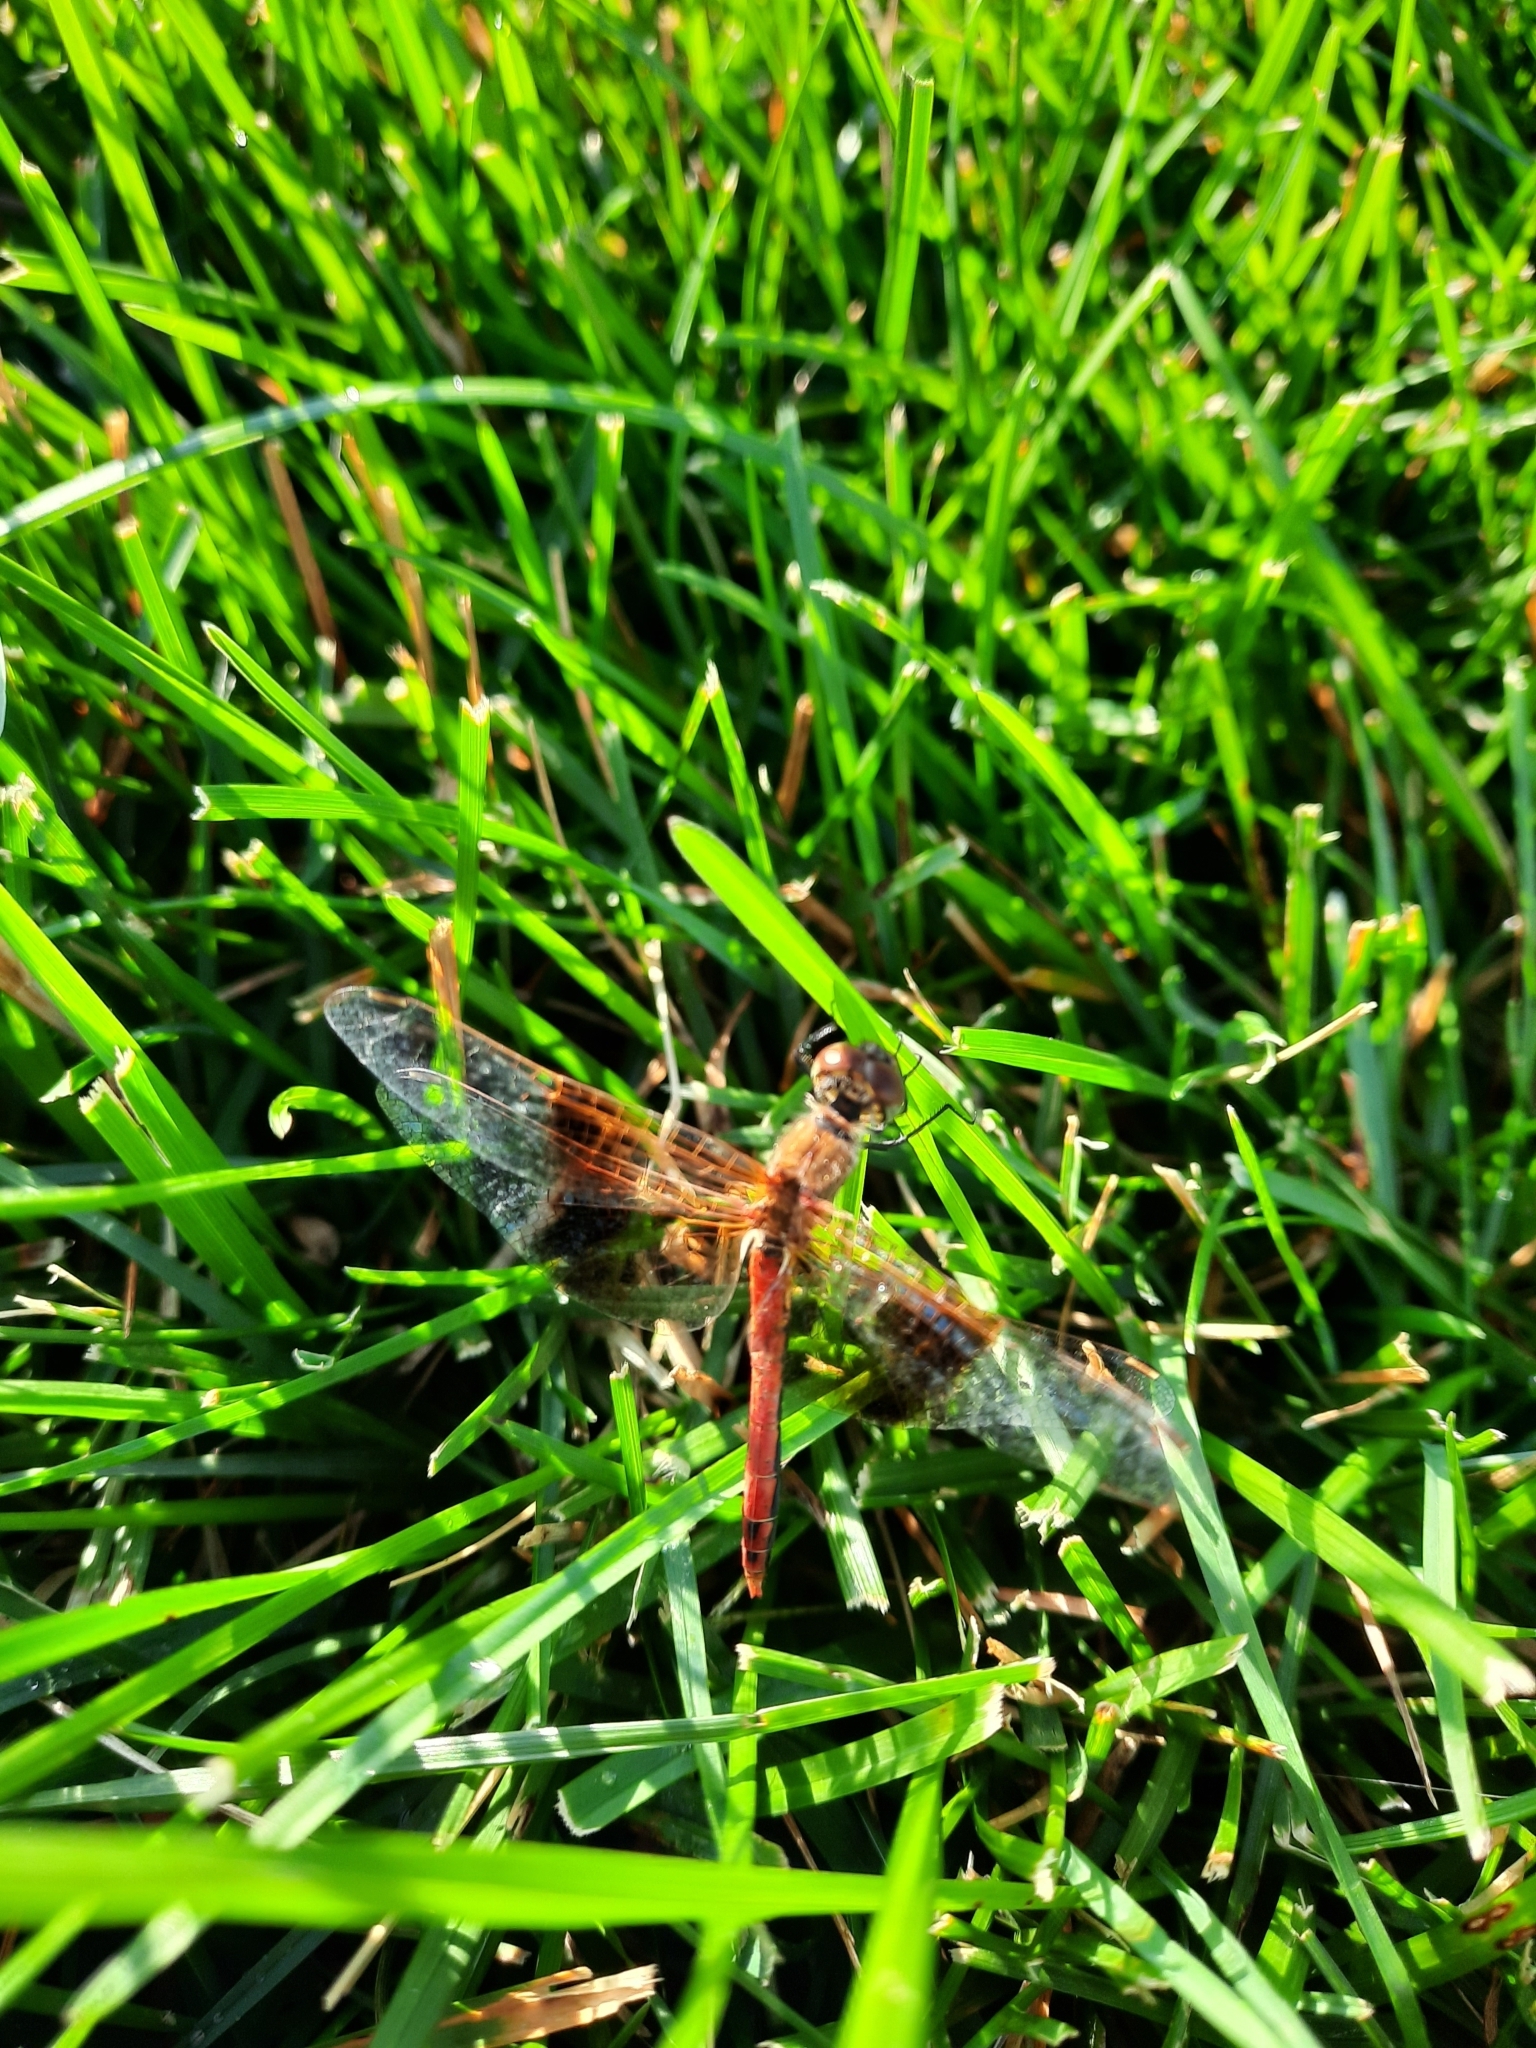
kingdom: Animalia
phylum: Arthropoda
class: Insecta
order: Odonata
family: Libellulidae
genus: Sympetrum
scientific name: Sympetrum semicinctum
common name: Band-winged meadowhawk
